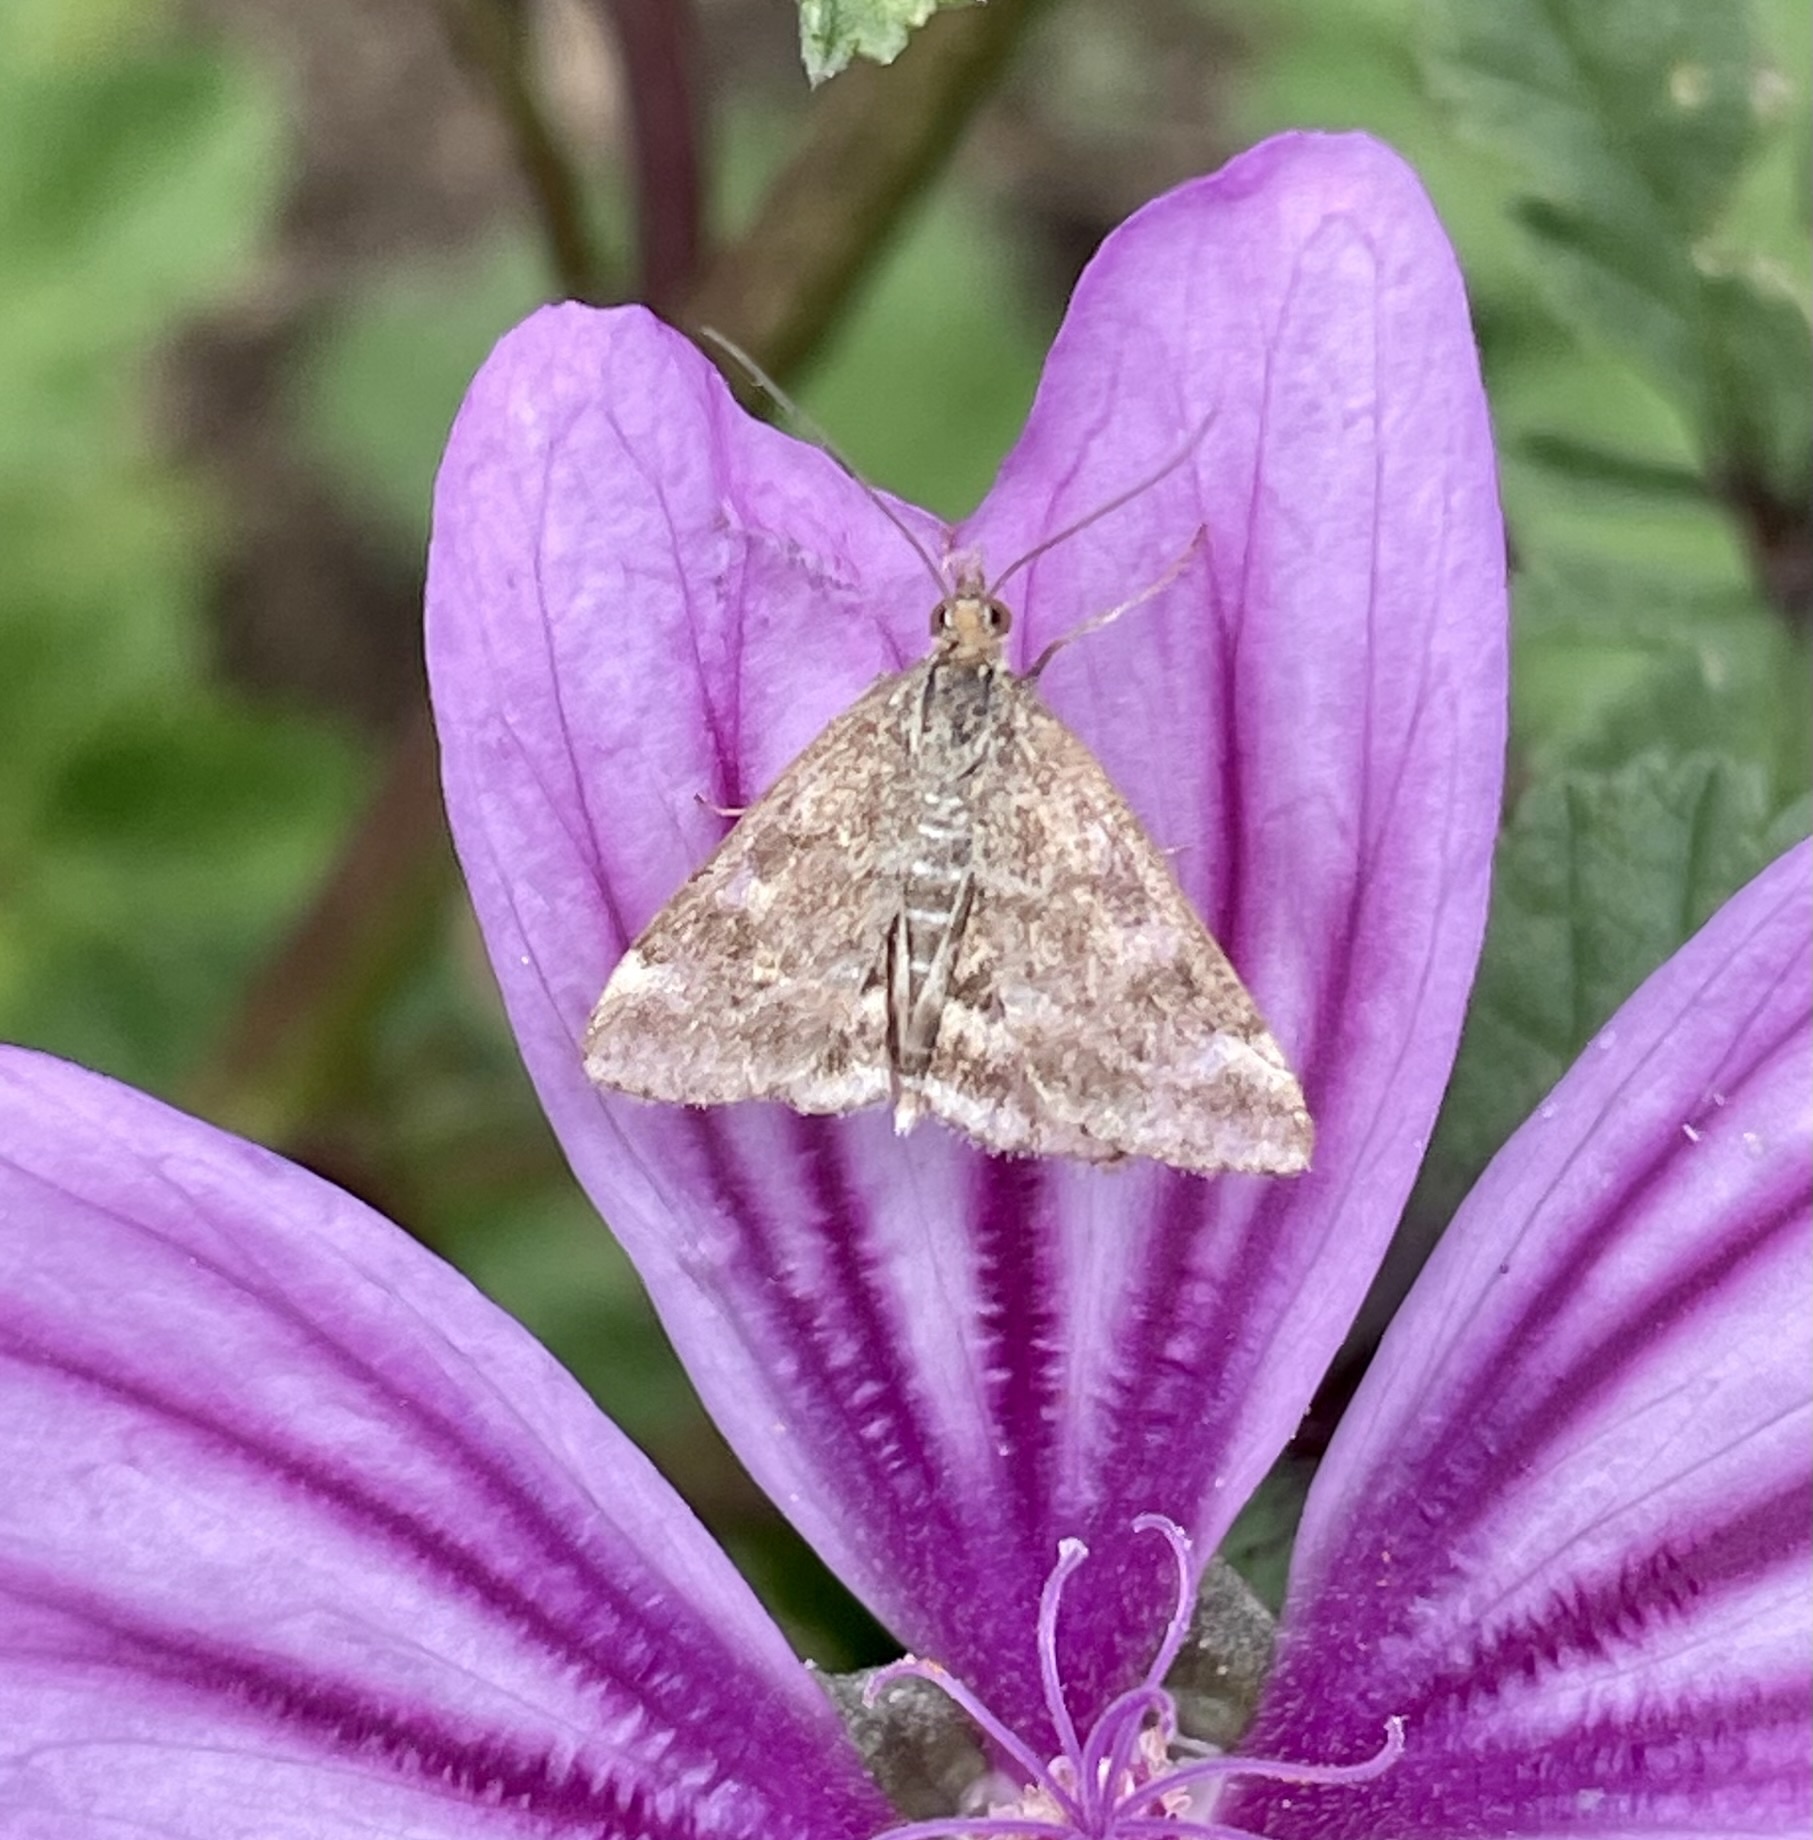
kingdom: Animalia
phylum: Arthropoda
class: Insecta
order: Lepidoptera
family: Crambidae
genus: Pyrausta
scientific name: Pyrausta despicata
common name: Straw-barred pearl
